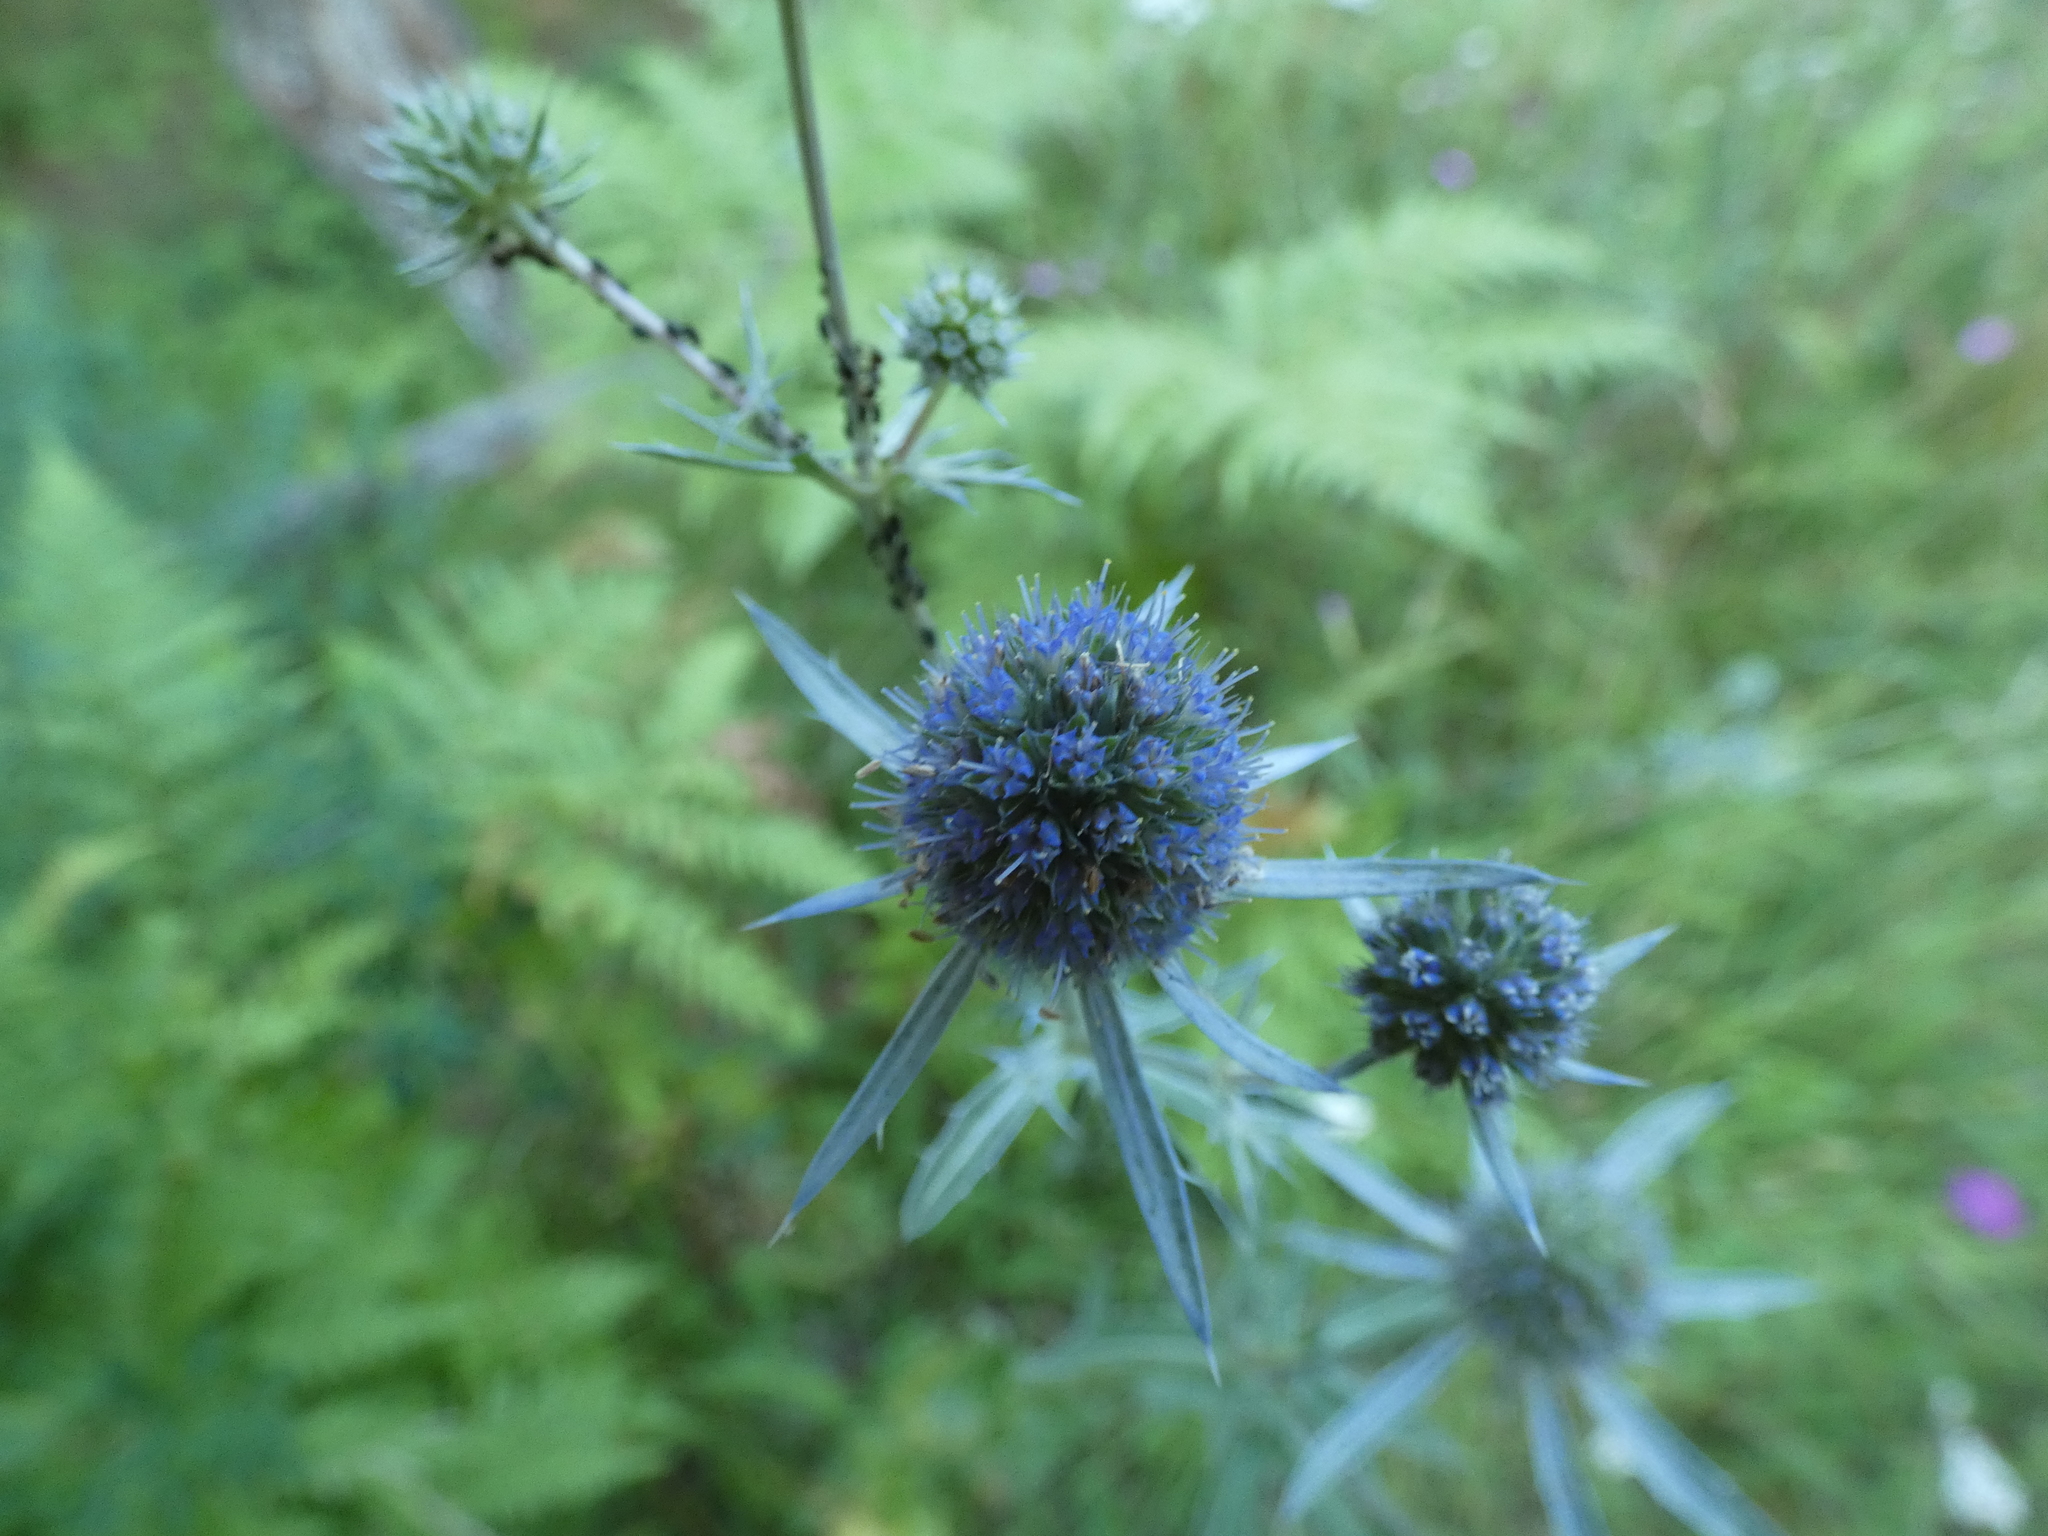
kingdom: Plantae
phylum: Tracheophyta
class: Magnoliopsida
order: Apiales
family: Apiaceae
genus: Eryngium
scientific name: Eryngium planum
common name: Blue eryngo
